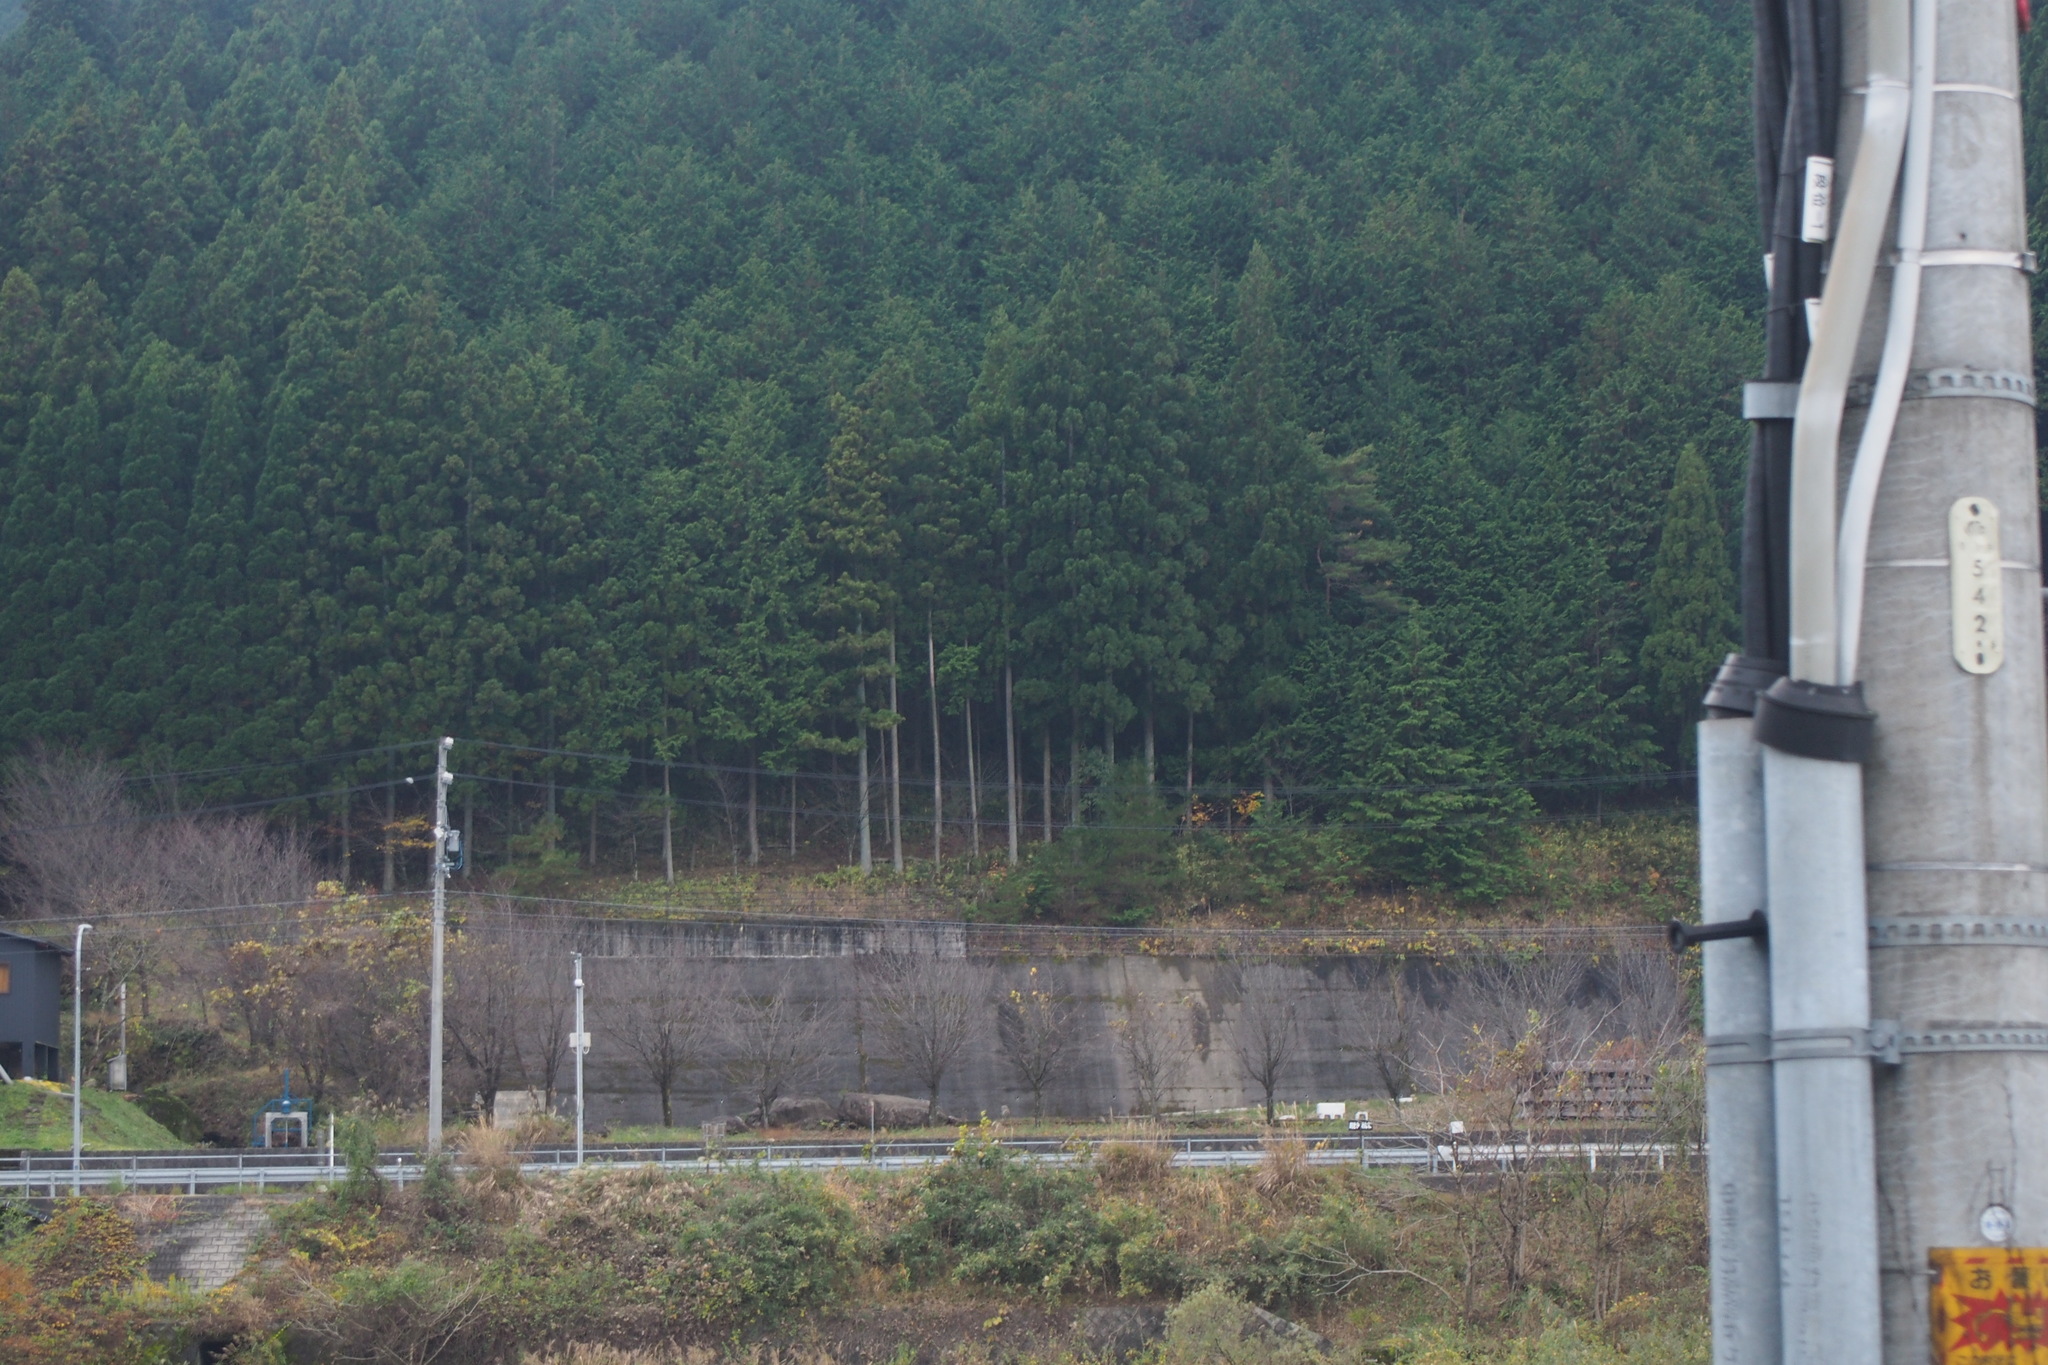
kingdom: Plantae
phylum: Tracheophyta
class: Pinopsida
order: Pinales
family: Cupressaceae
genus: Cryptomeria
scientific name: Cryptomeria japonica
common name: Japanese cedar
